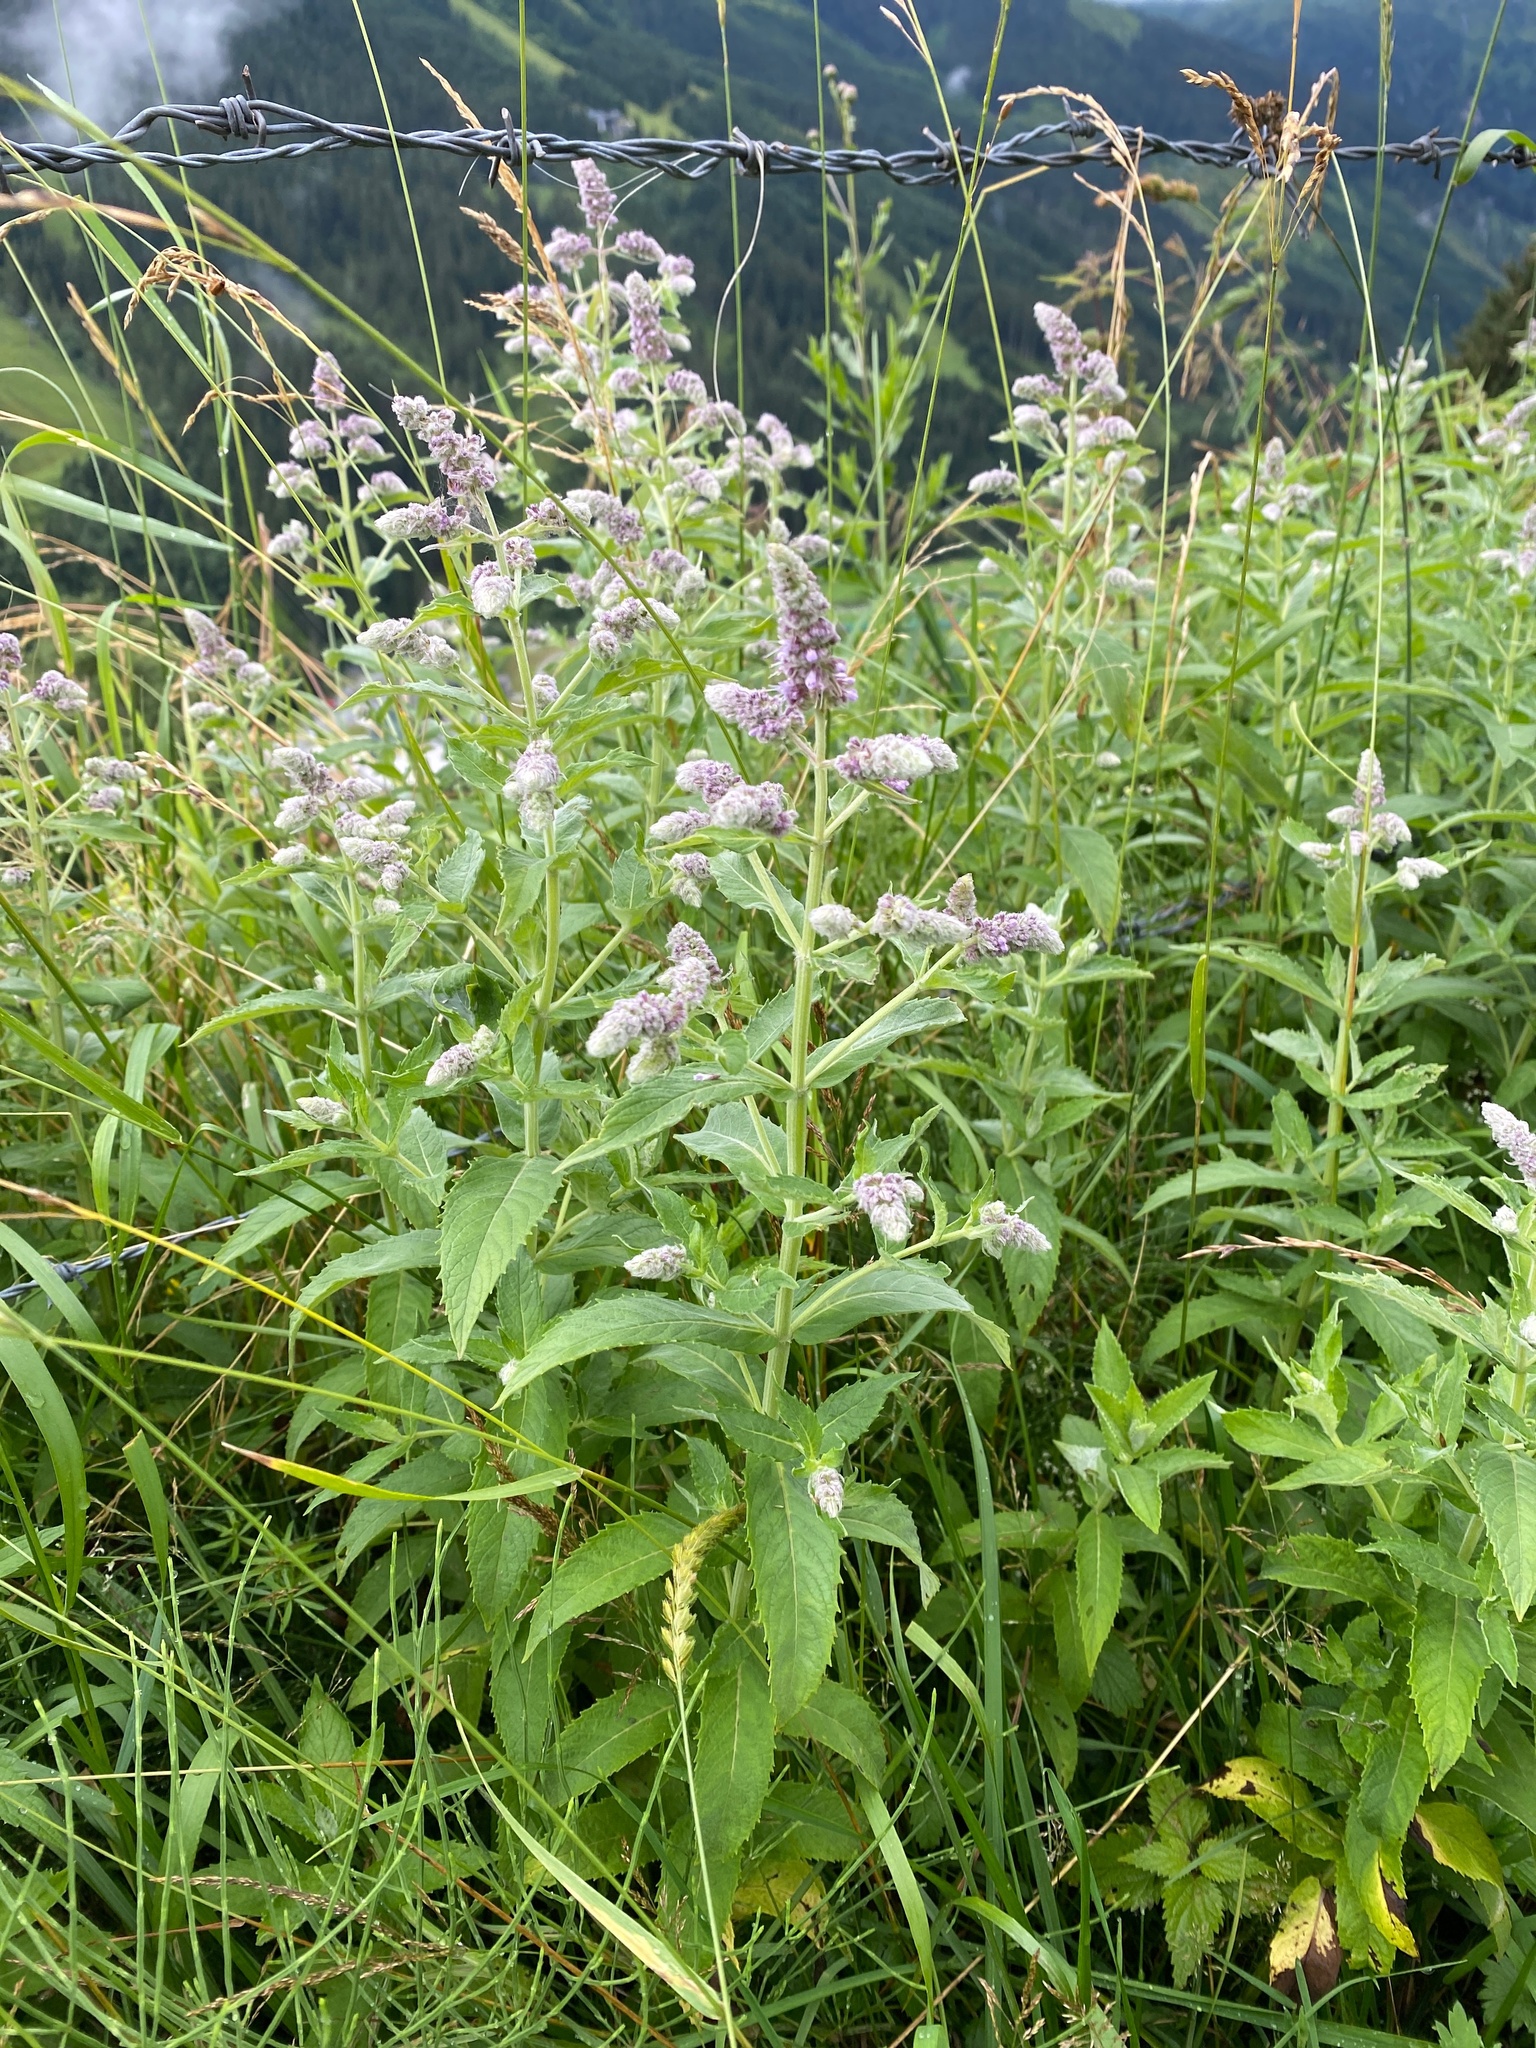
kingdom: Plantae
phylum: Tracheophyta
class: Magnoliopsida
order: Lamiales
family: Lamiaceae
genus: Mentha
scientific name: Mentha longifolia
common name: Horse mint
